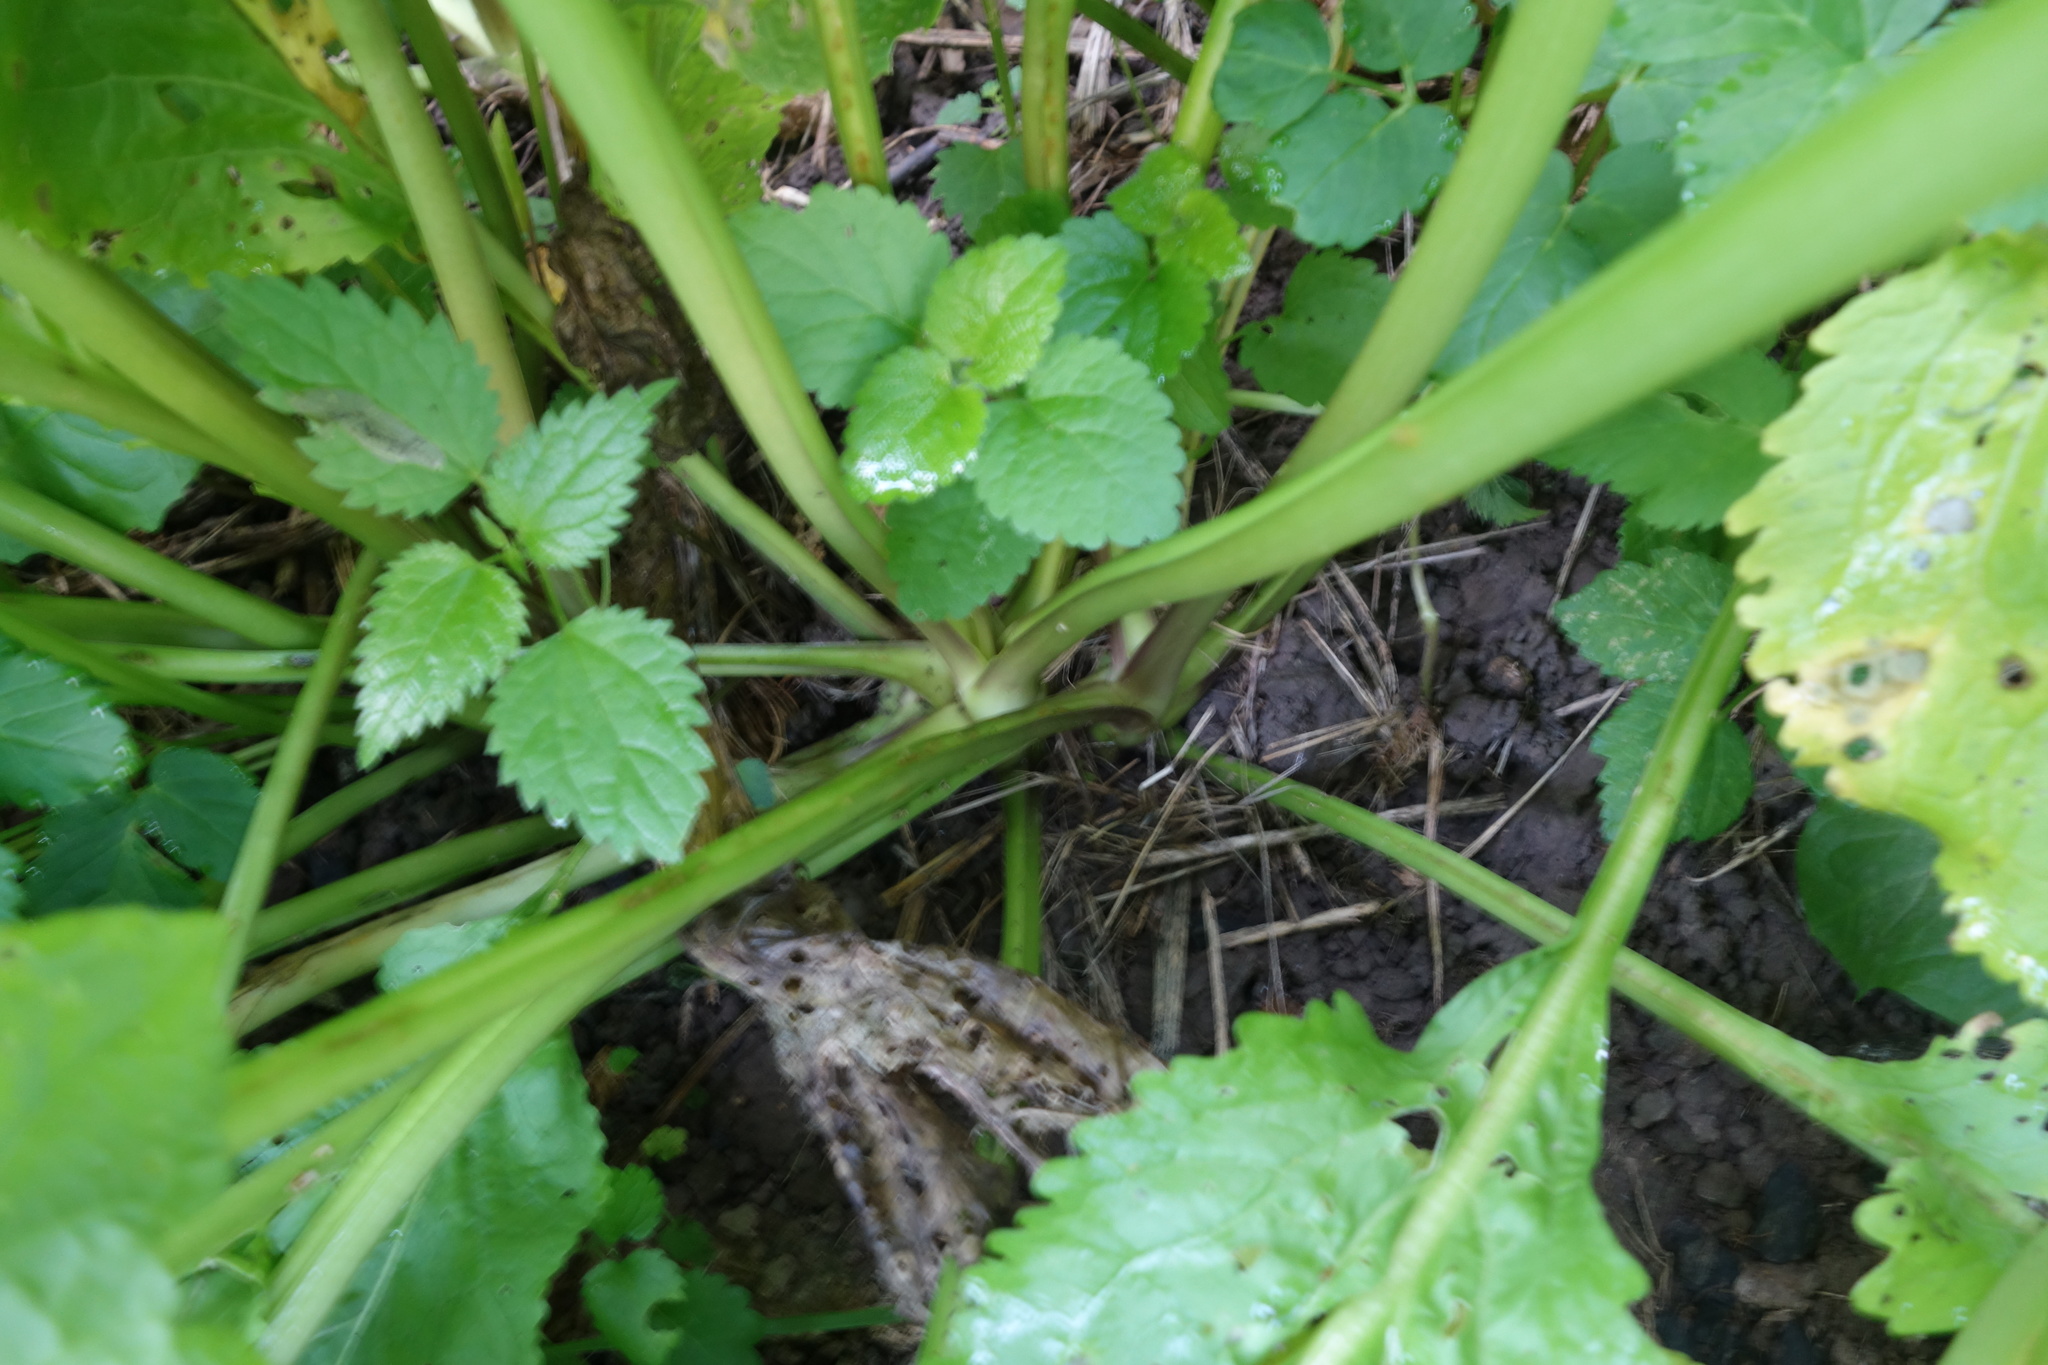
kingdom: Plantae
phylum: Tracheophyta
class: Magnoliopsida
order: Brassicales
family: Brassicaceae
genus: Armoracia
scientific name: Armoracia rusticana
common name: Horseradish
